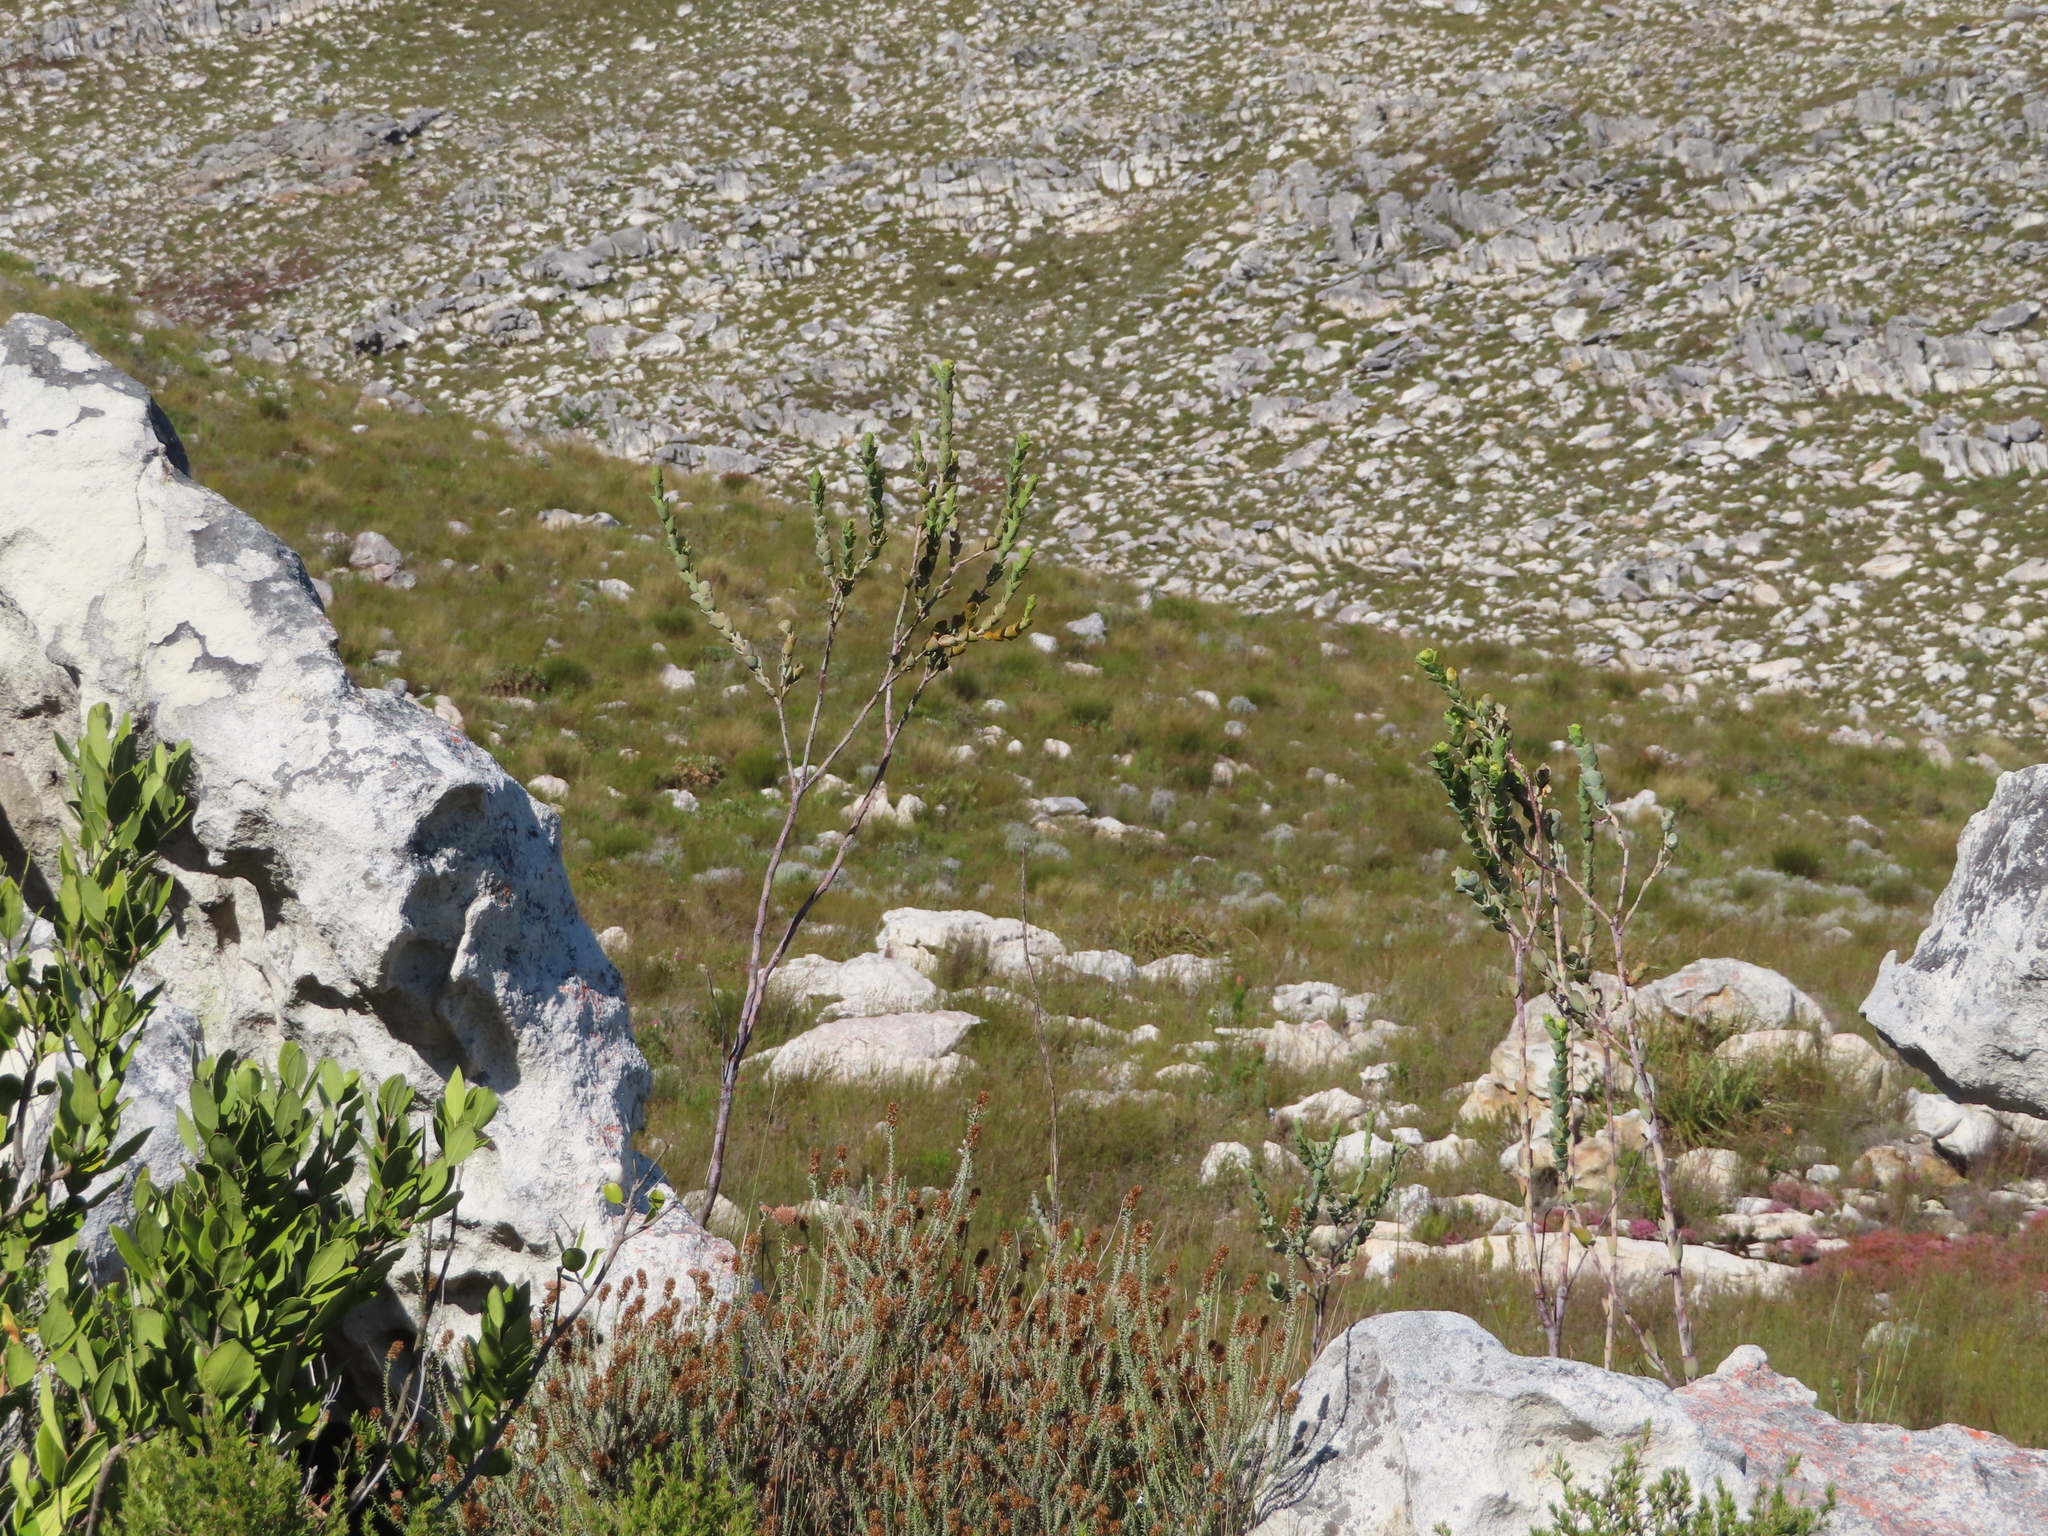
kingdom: Plantae
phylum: Tracheophyta
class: Magnoliopsida
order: Santalales
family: Thesiaceae
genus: Thesium
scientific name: Thesium euphorbioides
